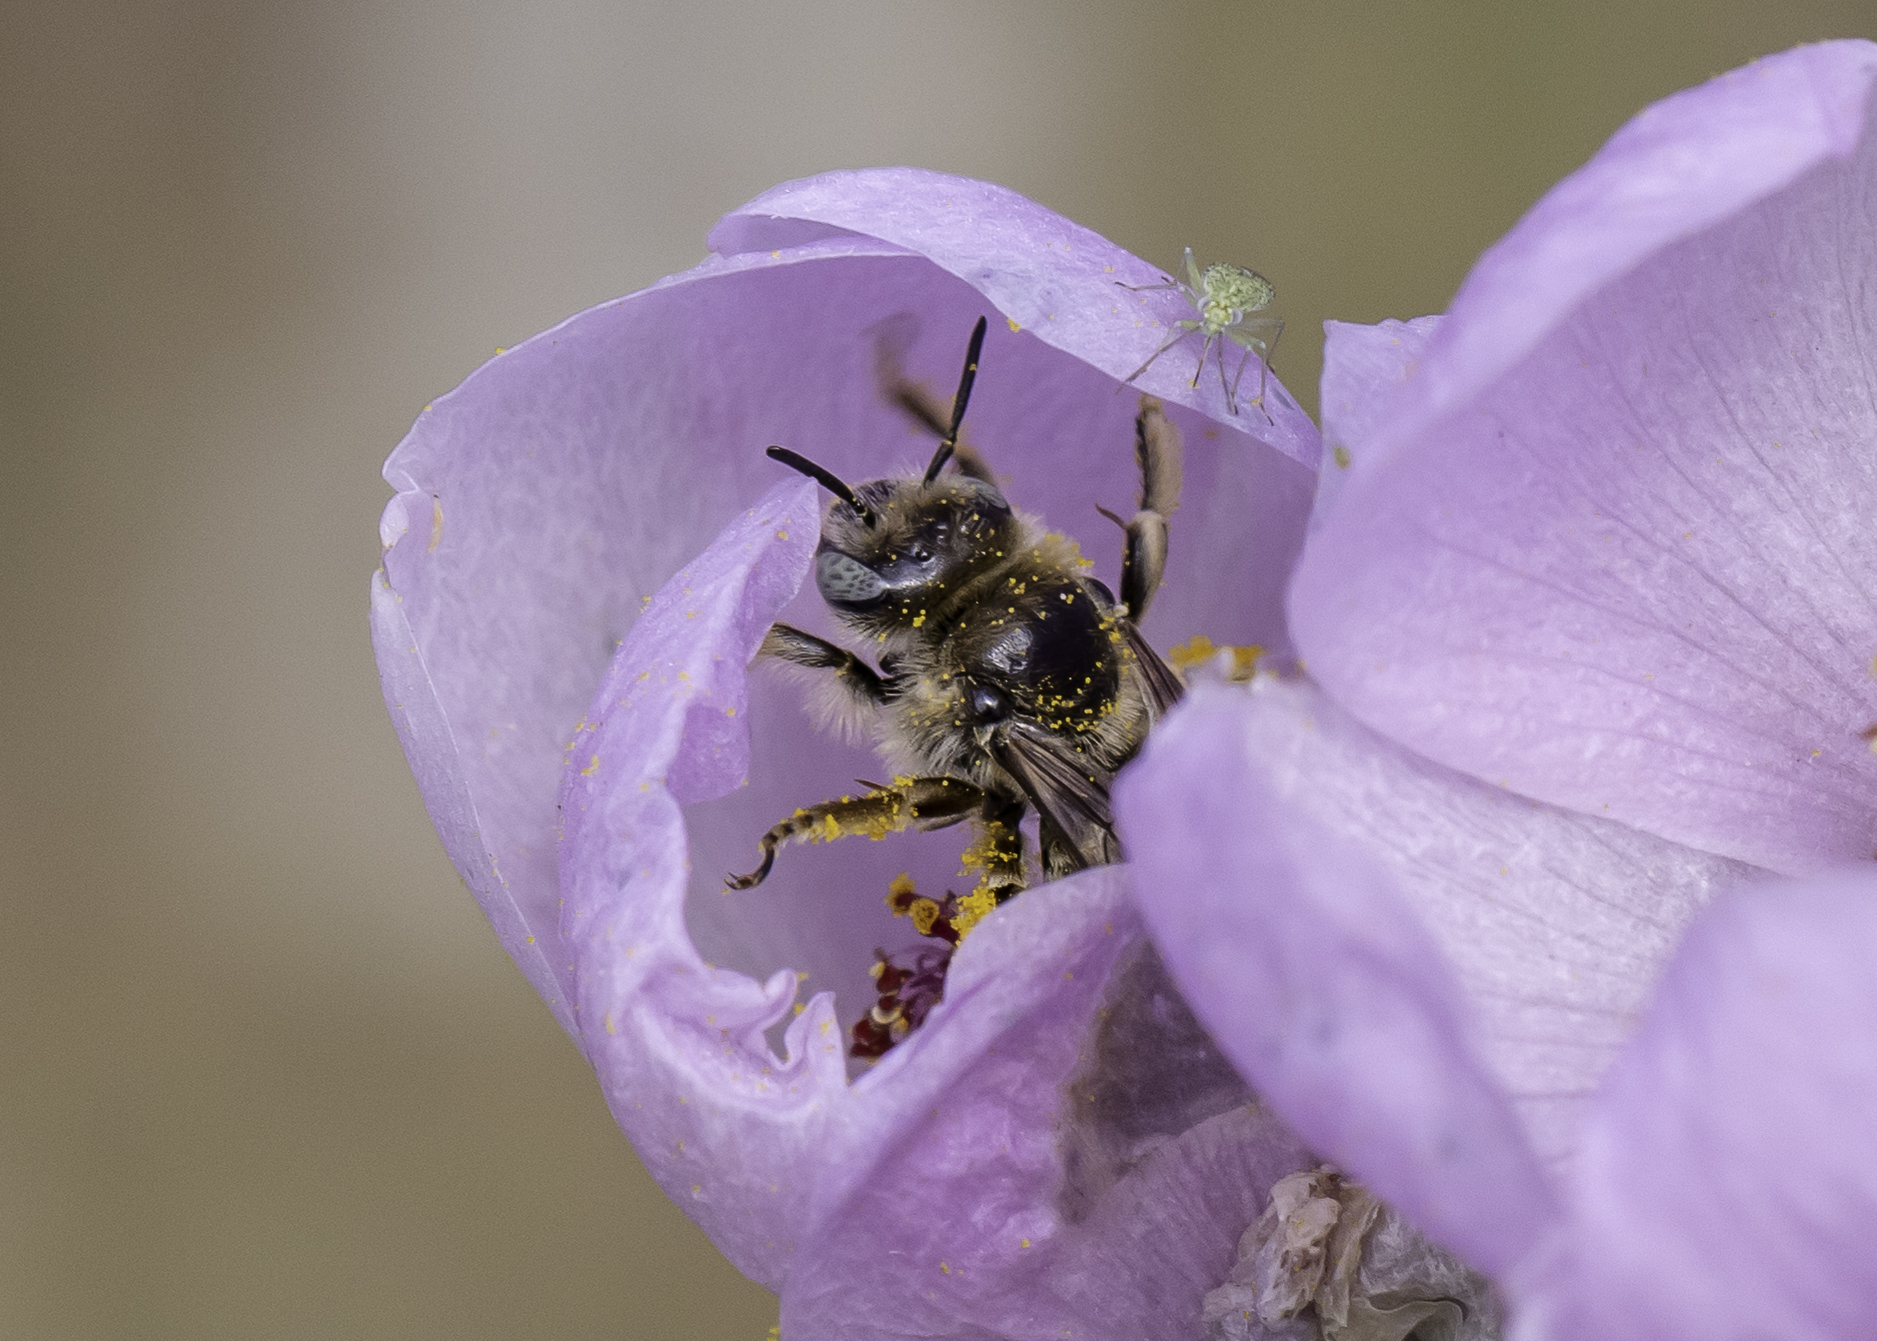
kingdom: Animalia
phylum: Arthropoda
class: Insecta
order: Hymenoptera
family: Apidae
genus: Diadasia
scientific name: Diadasia
